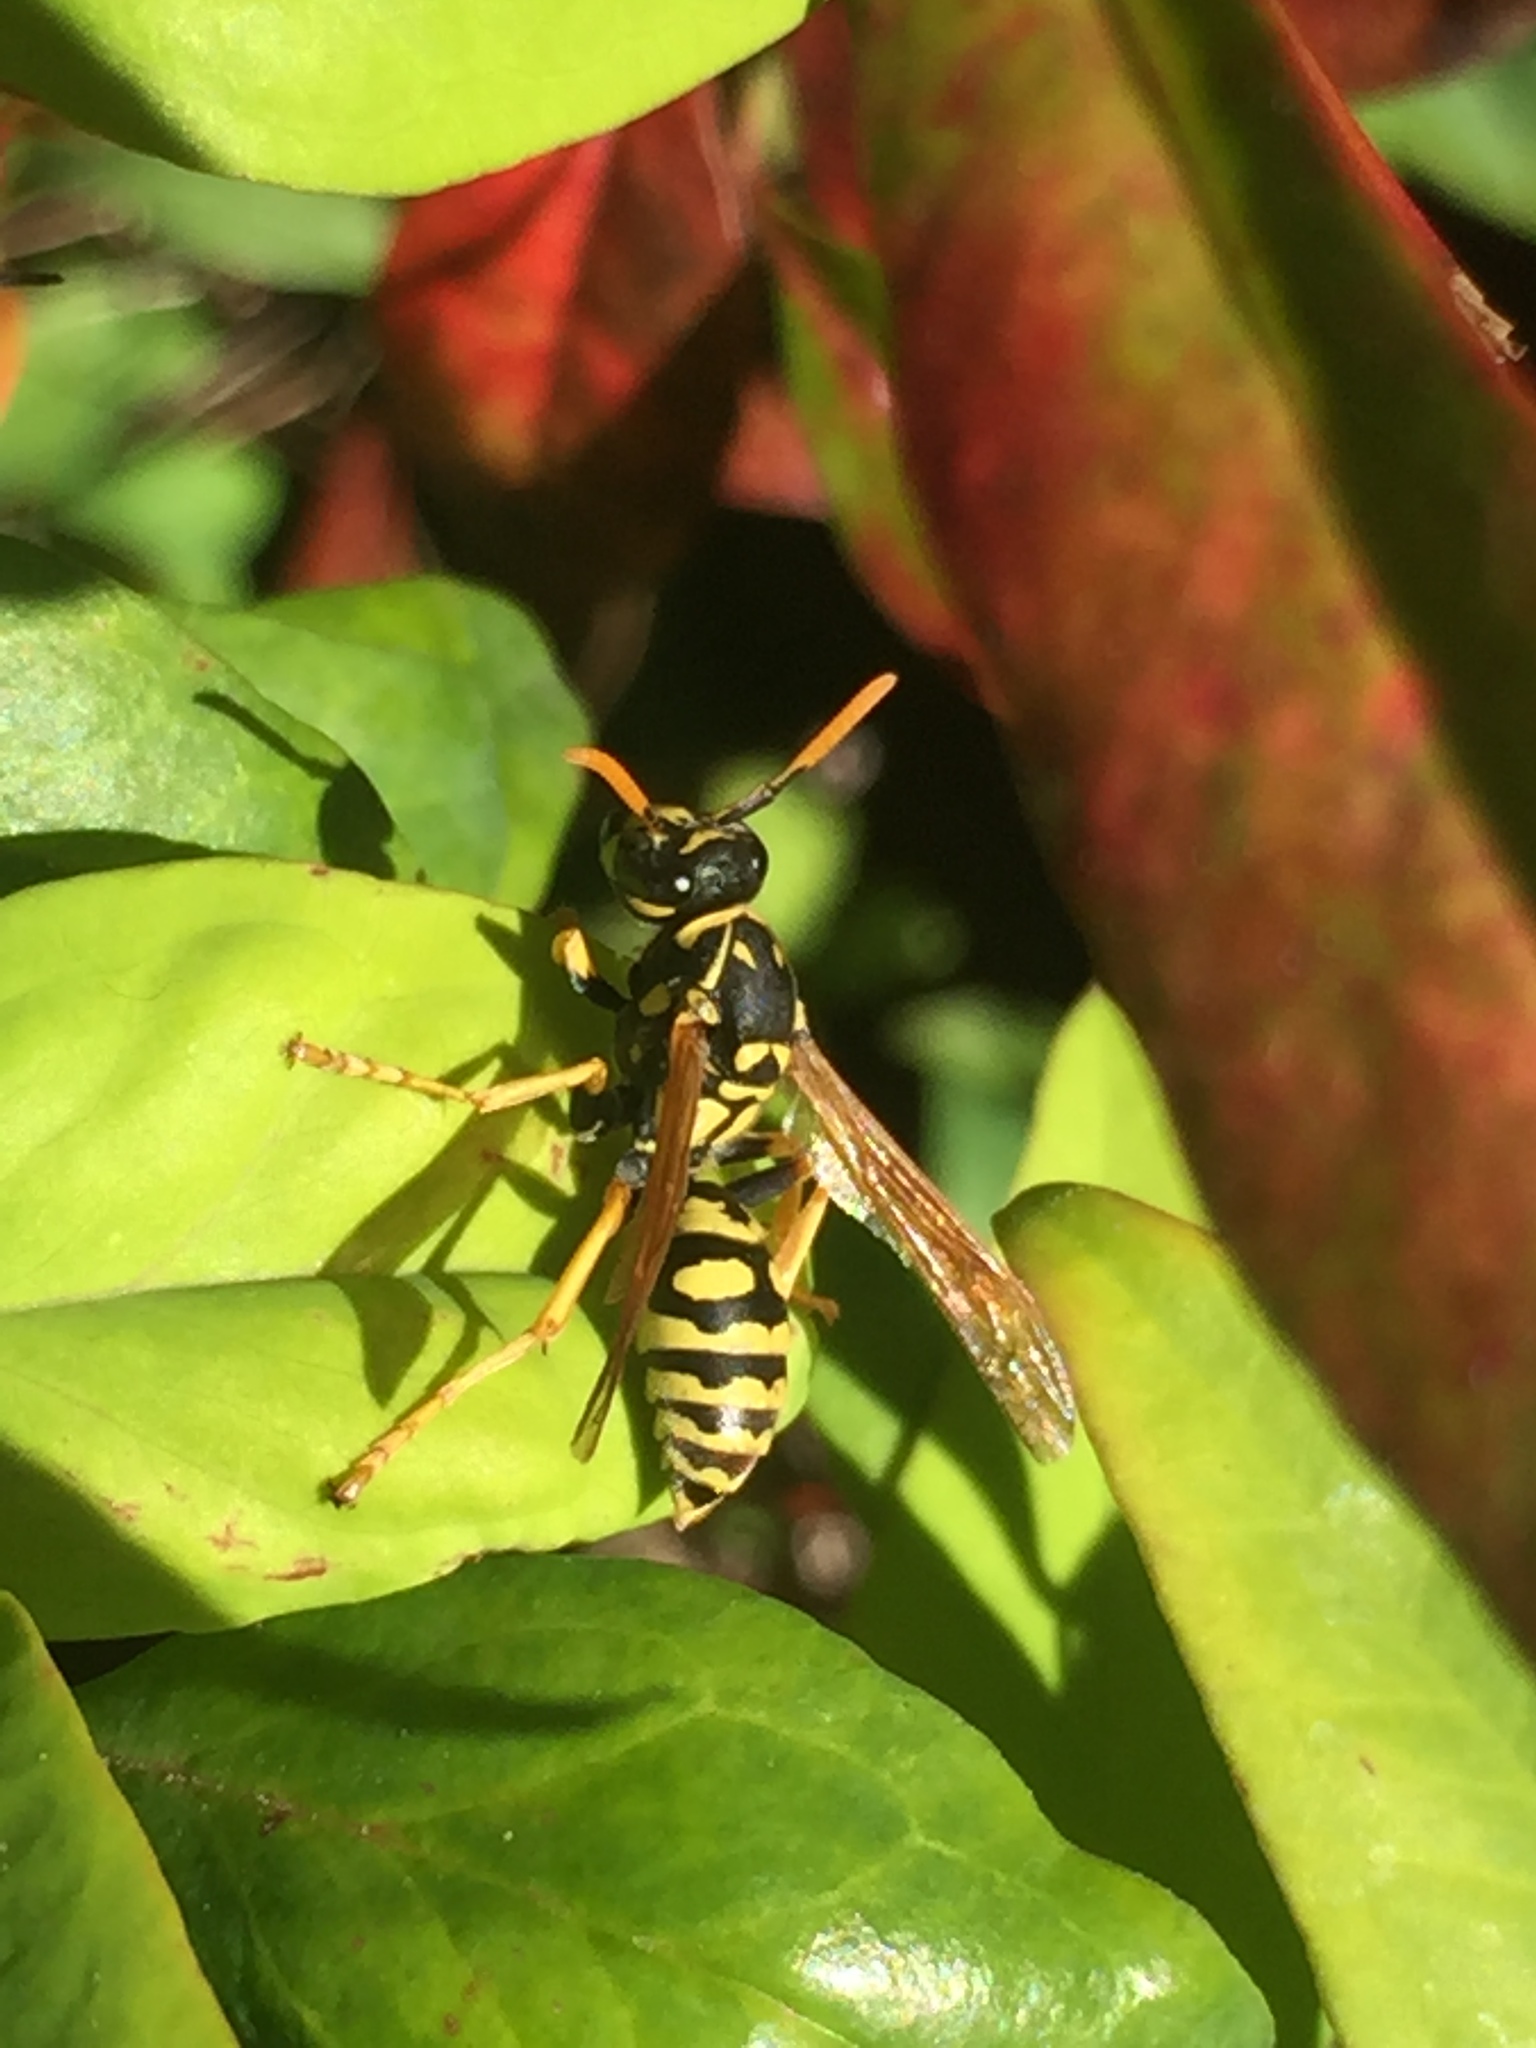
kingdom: Animalia
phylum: Arthropoda
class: Insecta
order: Hymenoptera
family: Eumenidae
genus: Polistes
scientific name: Polistes dominula
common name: Paper wasp
